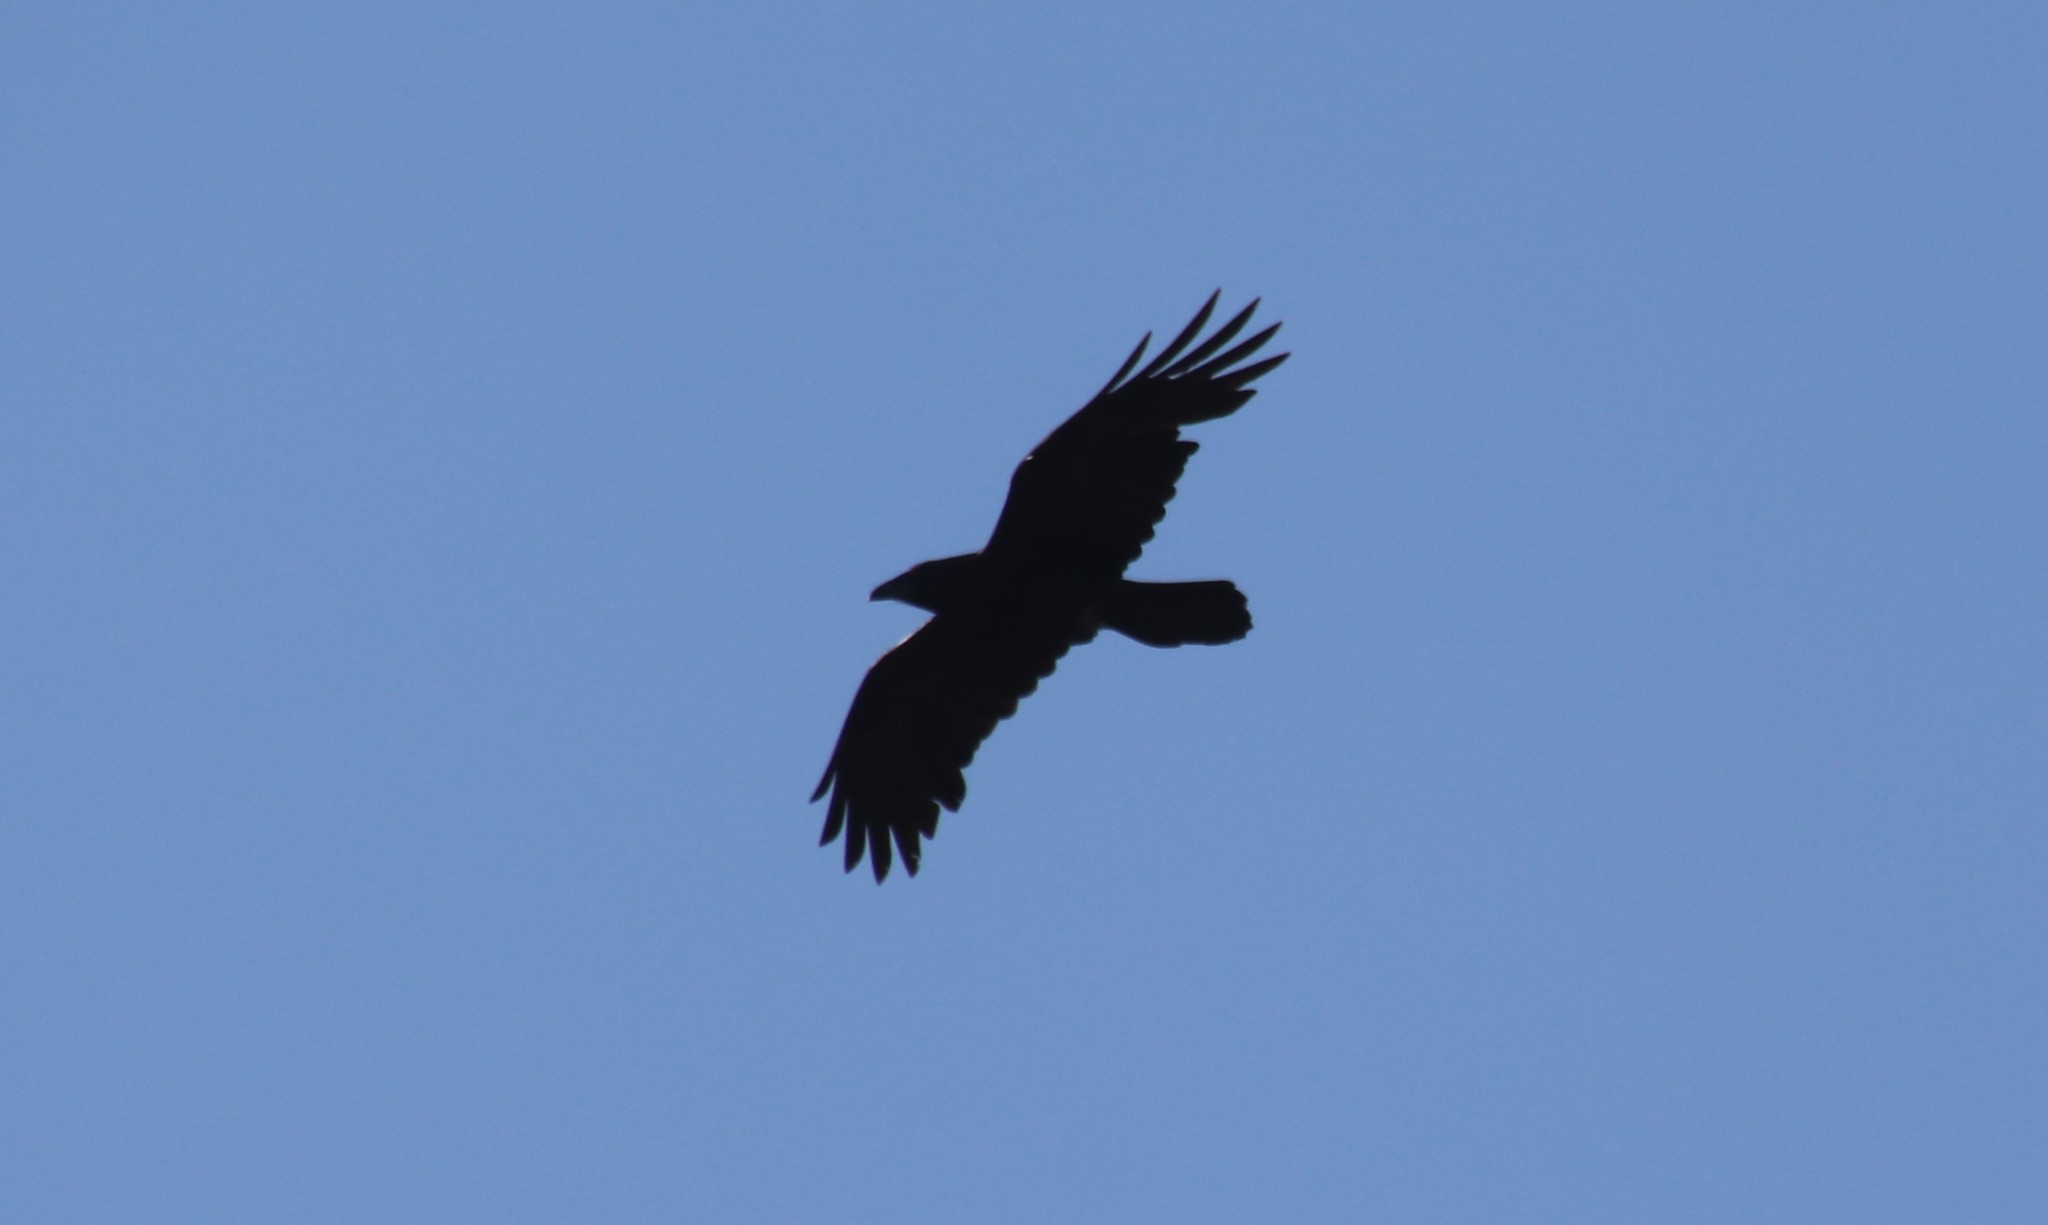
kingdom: Animalia
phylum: Chordata
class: Aves
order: Passeriformes
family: Corvidae
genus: Corvus
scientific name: Corvus corax
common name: Common raven
